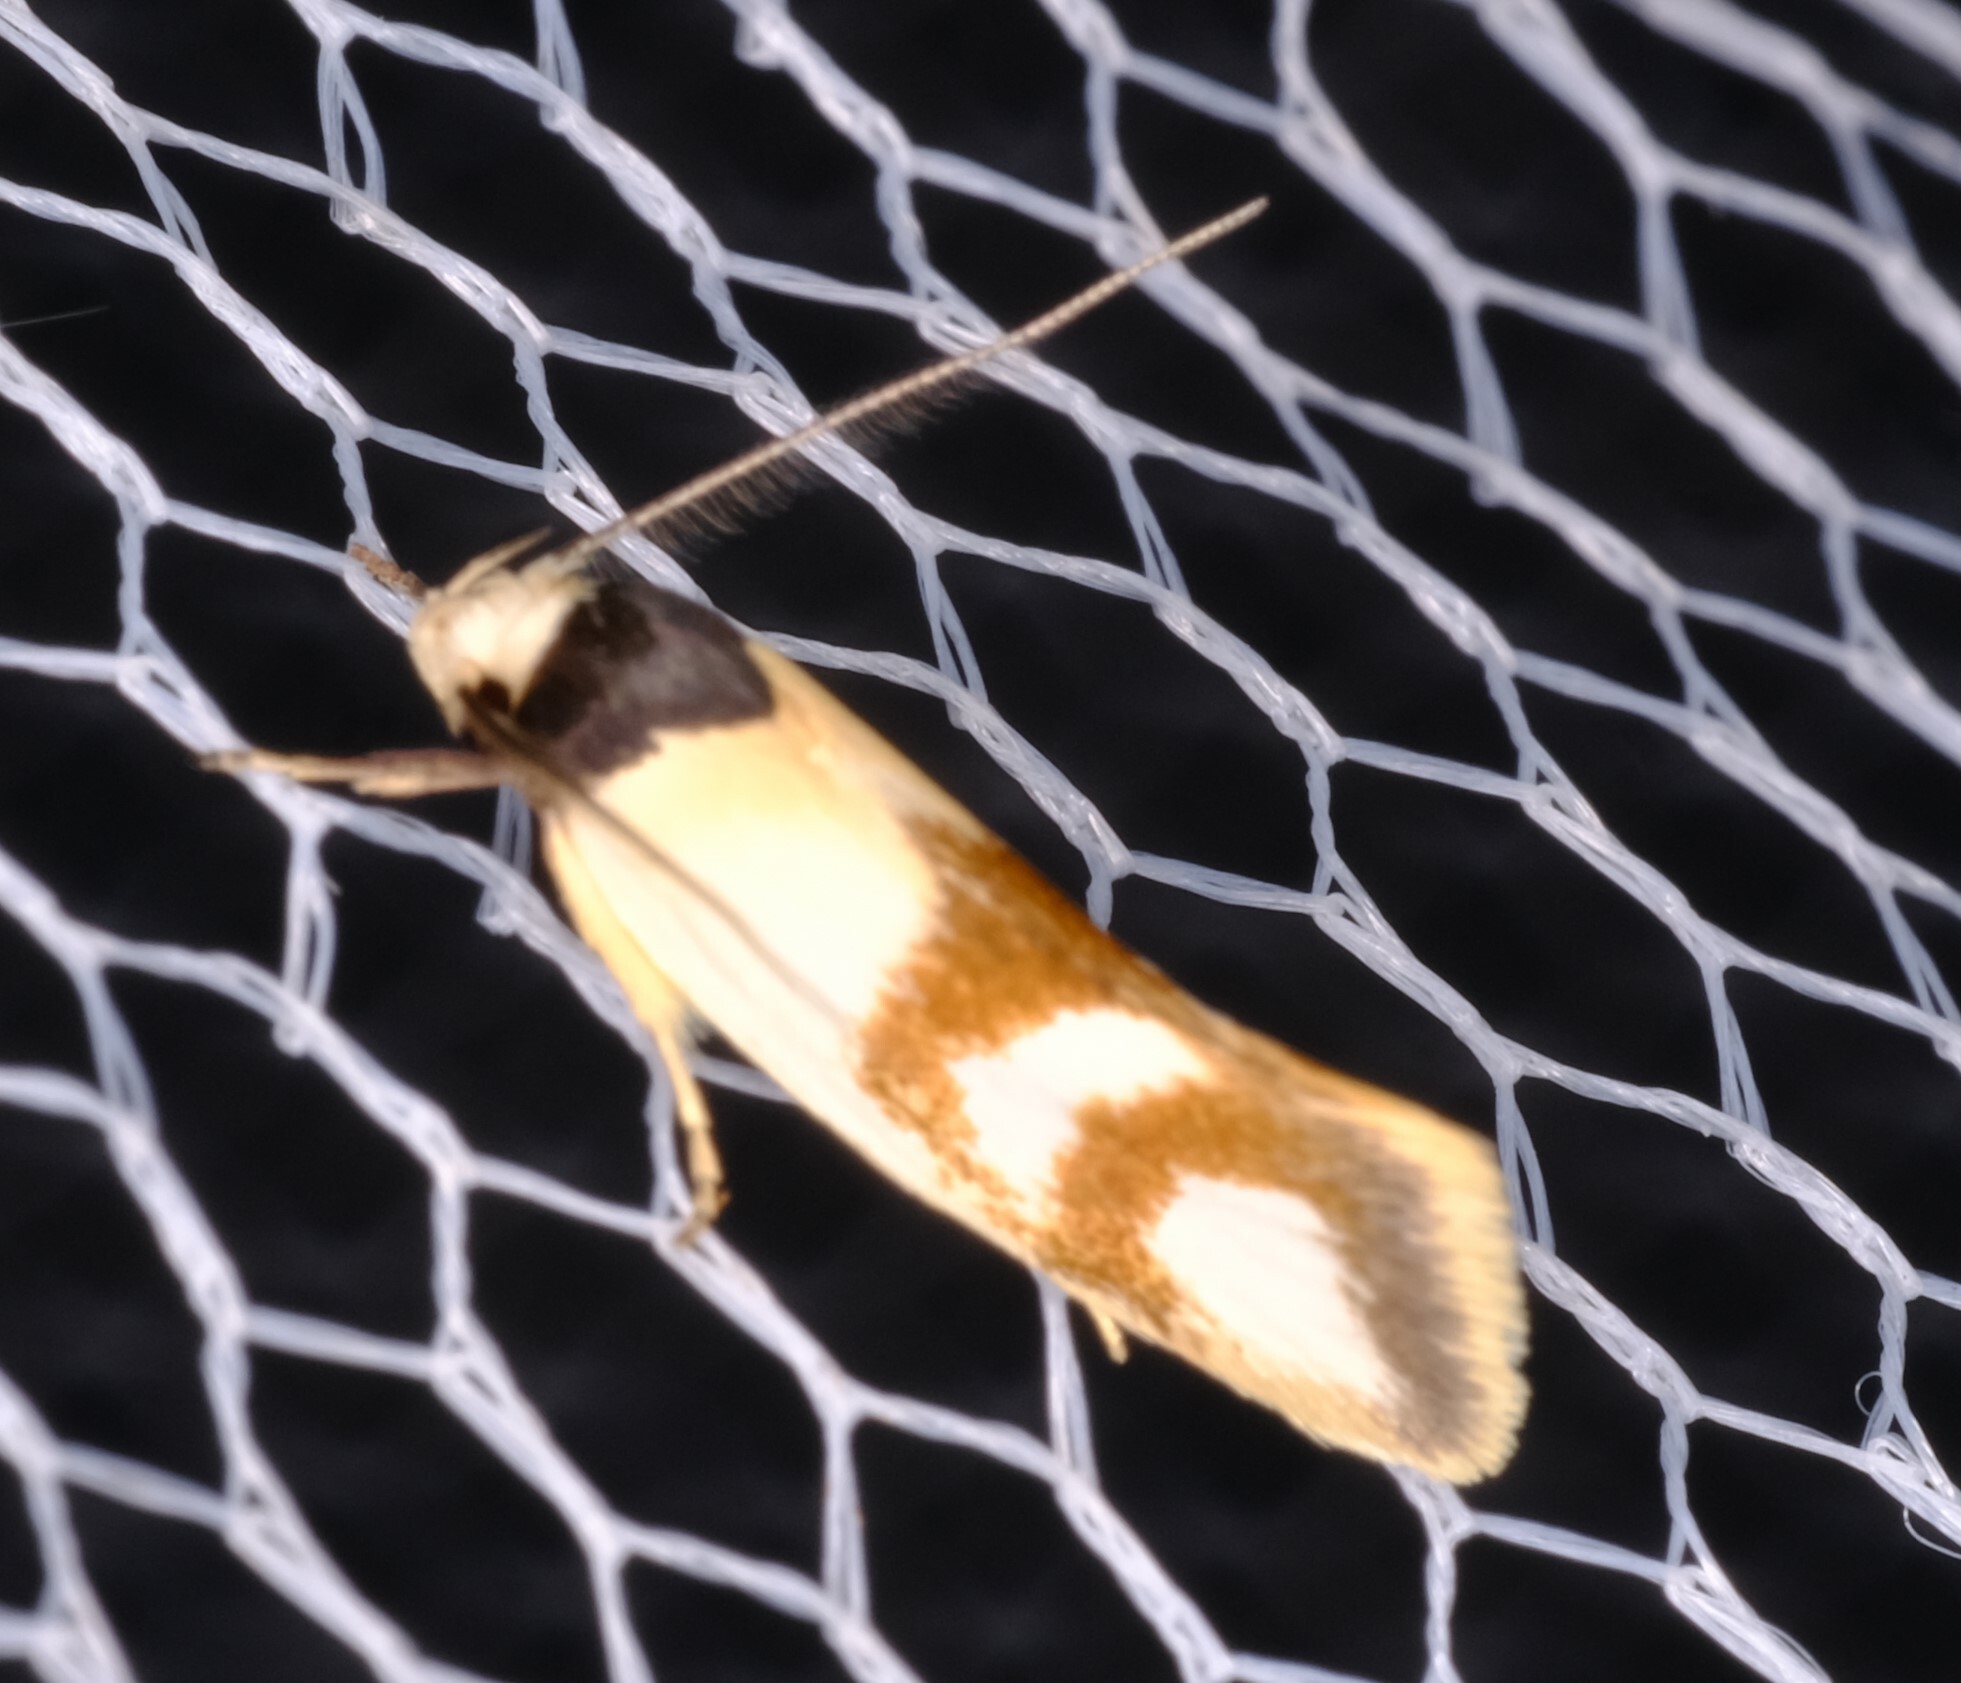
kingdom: Animalia
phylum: Arthropoda
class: Insecta
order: Lepidoptera
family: Oecophoridae
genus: Antipterna
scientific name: Antipterna trilicella
